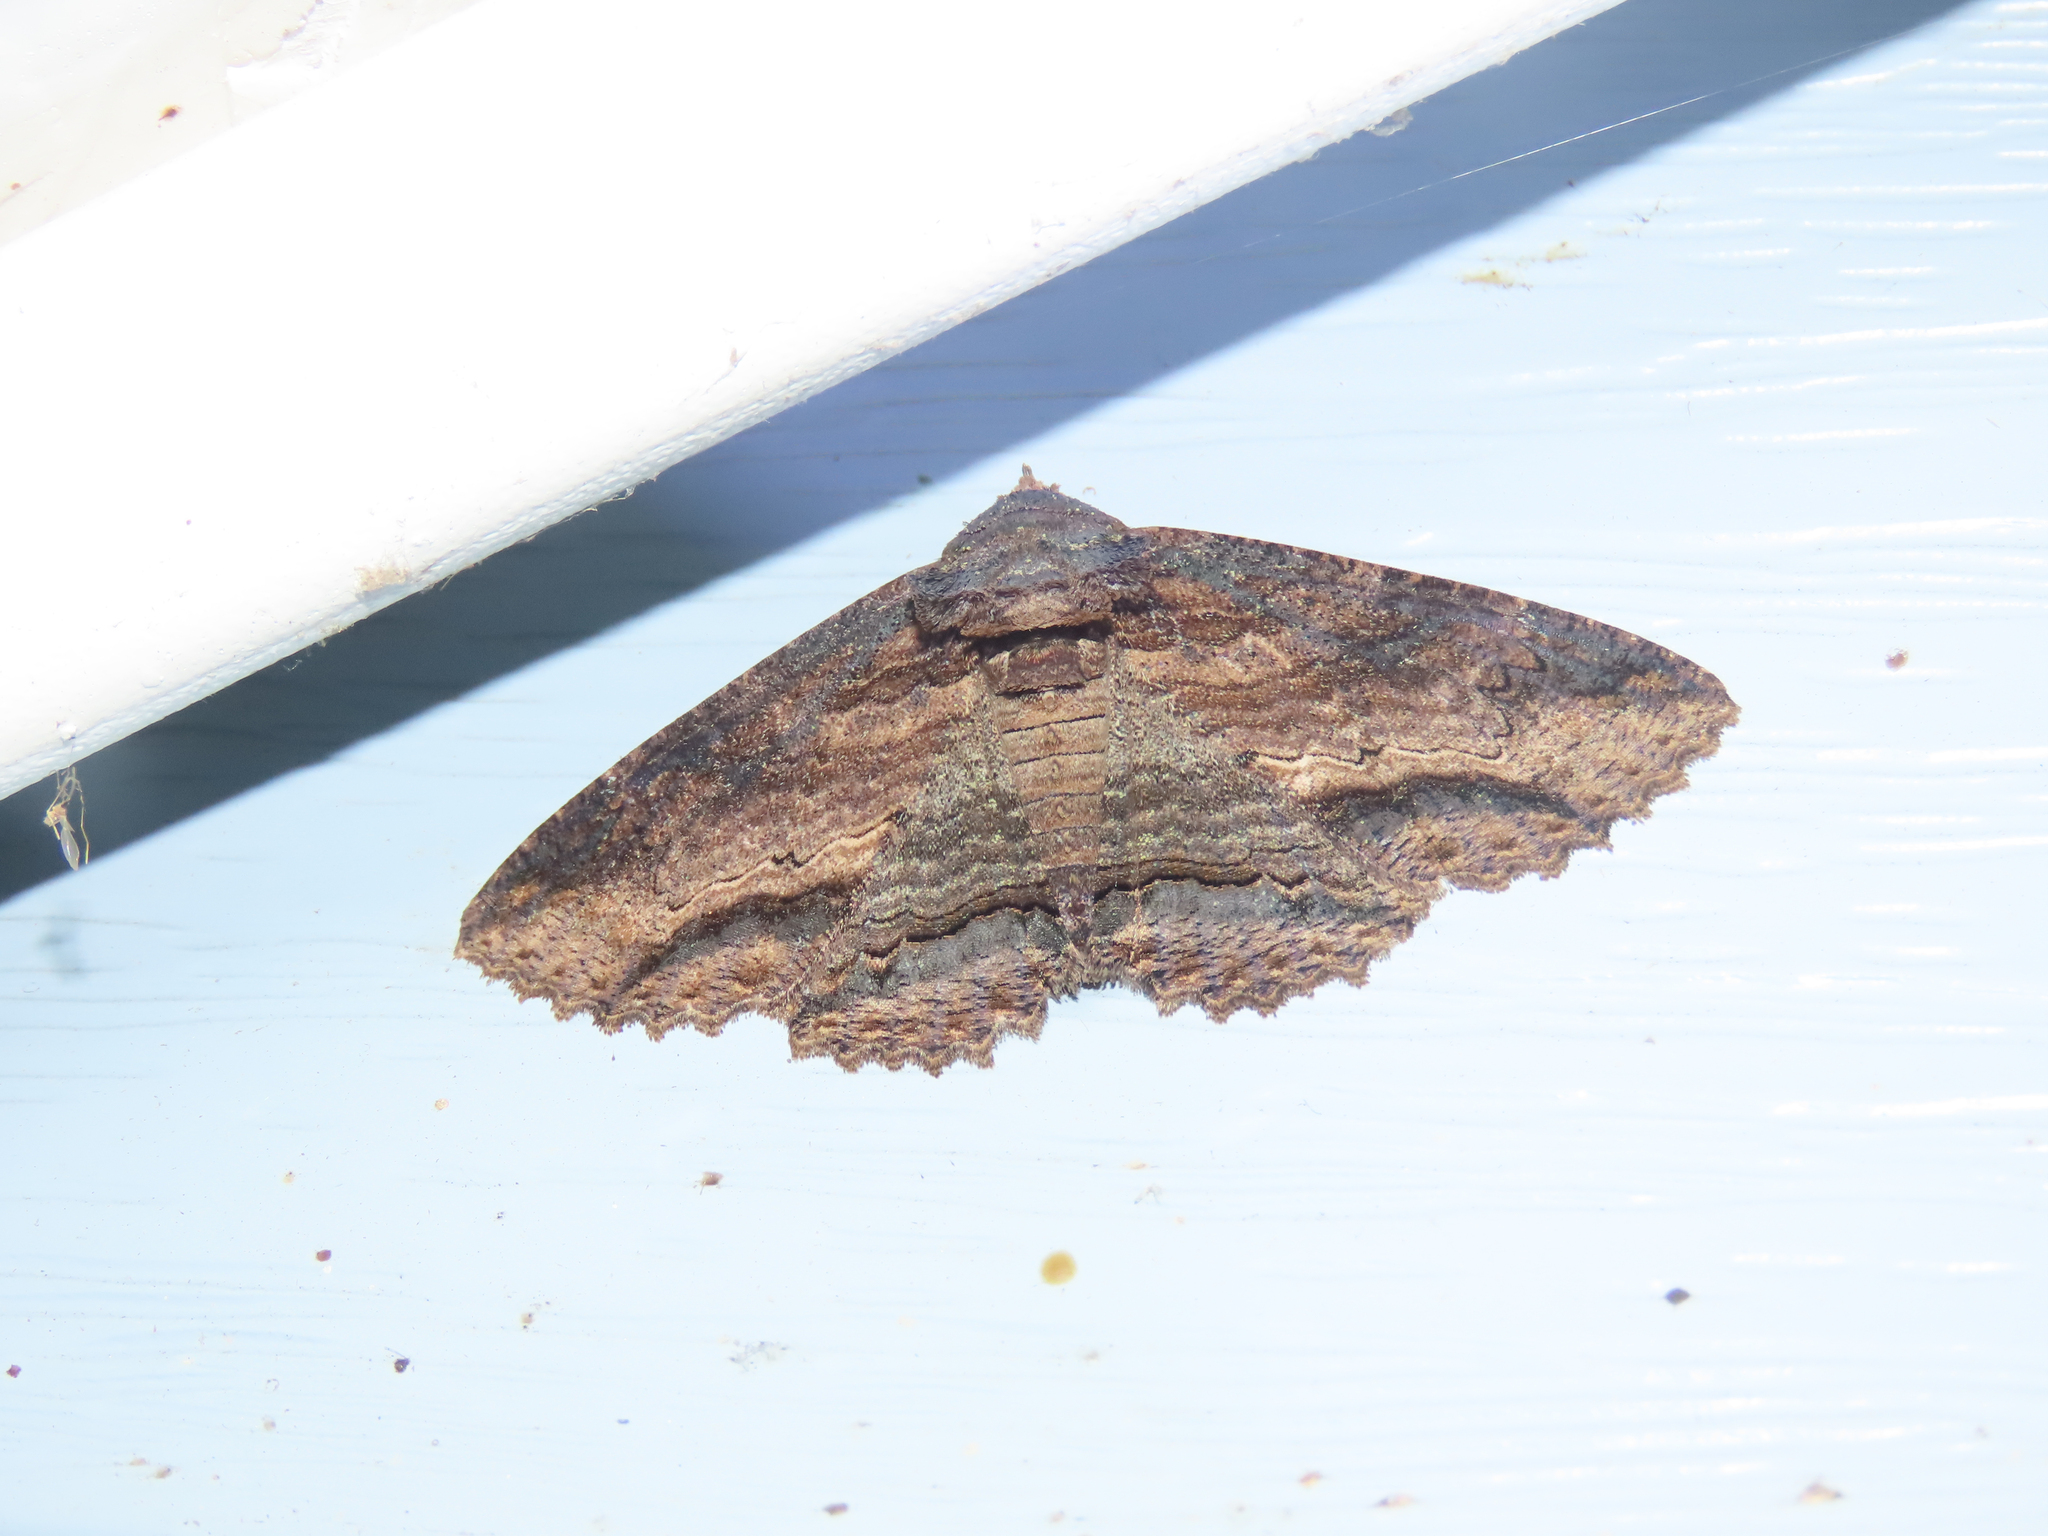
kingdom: Animalia
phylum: Arthropoda
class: Insecta
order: Lepidoptera
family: Erebidae
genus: Zale
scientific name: Zale lunata
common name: Lunate zale moth
